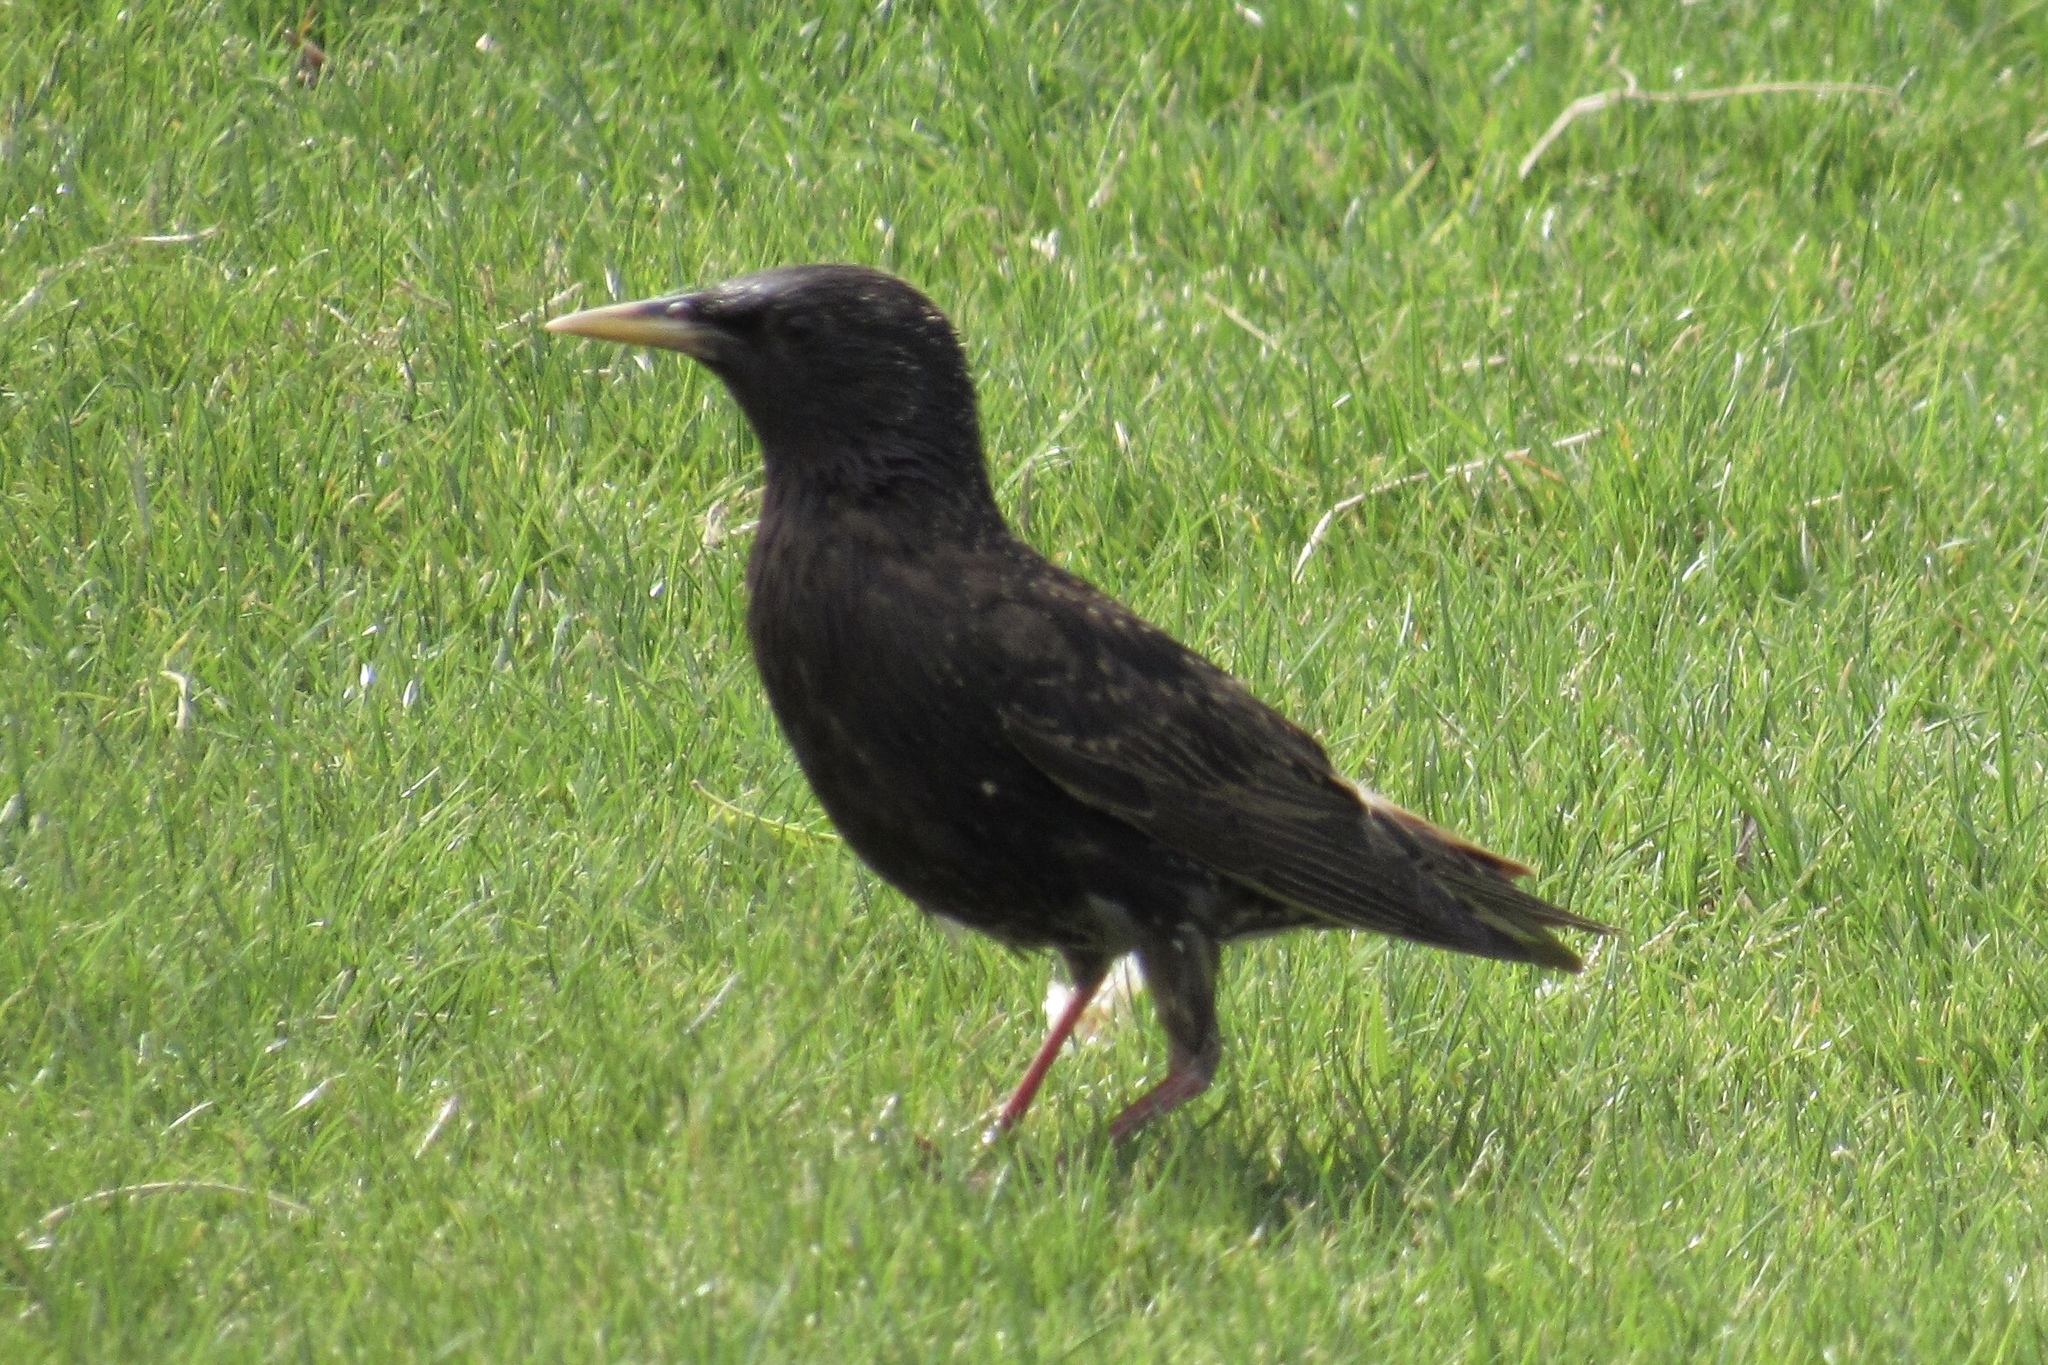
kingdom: Animalia
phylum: Chordata
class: Aves
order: Passeriformes
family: Sturnidae
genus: Sturnus
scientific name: Sturnus vulgaris
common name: Common starling
